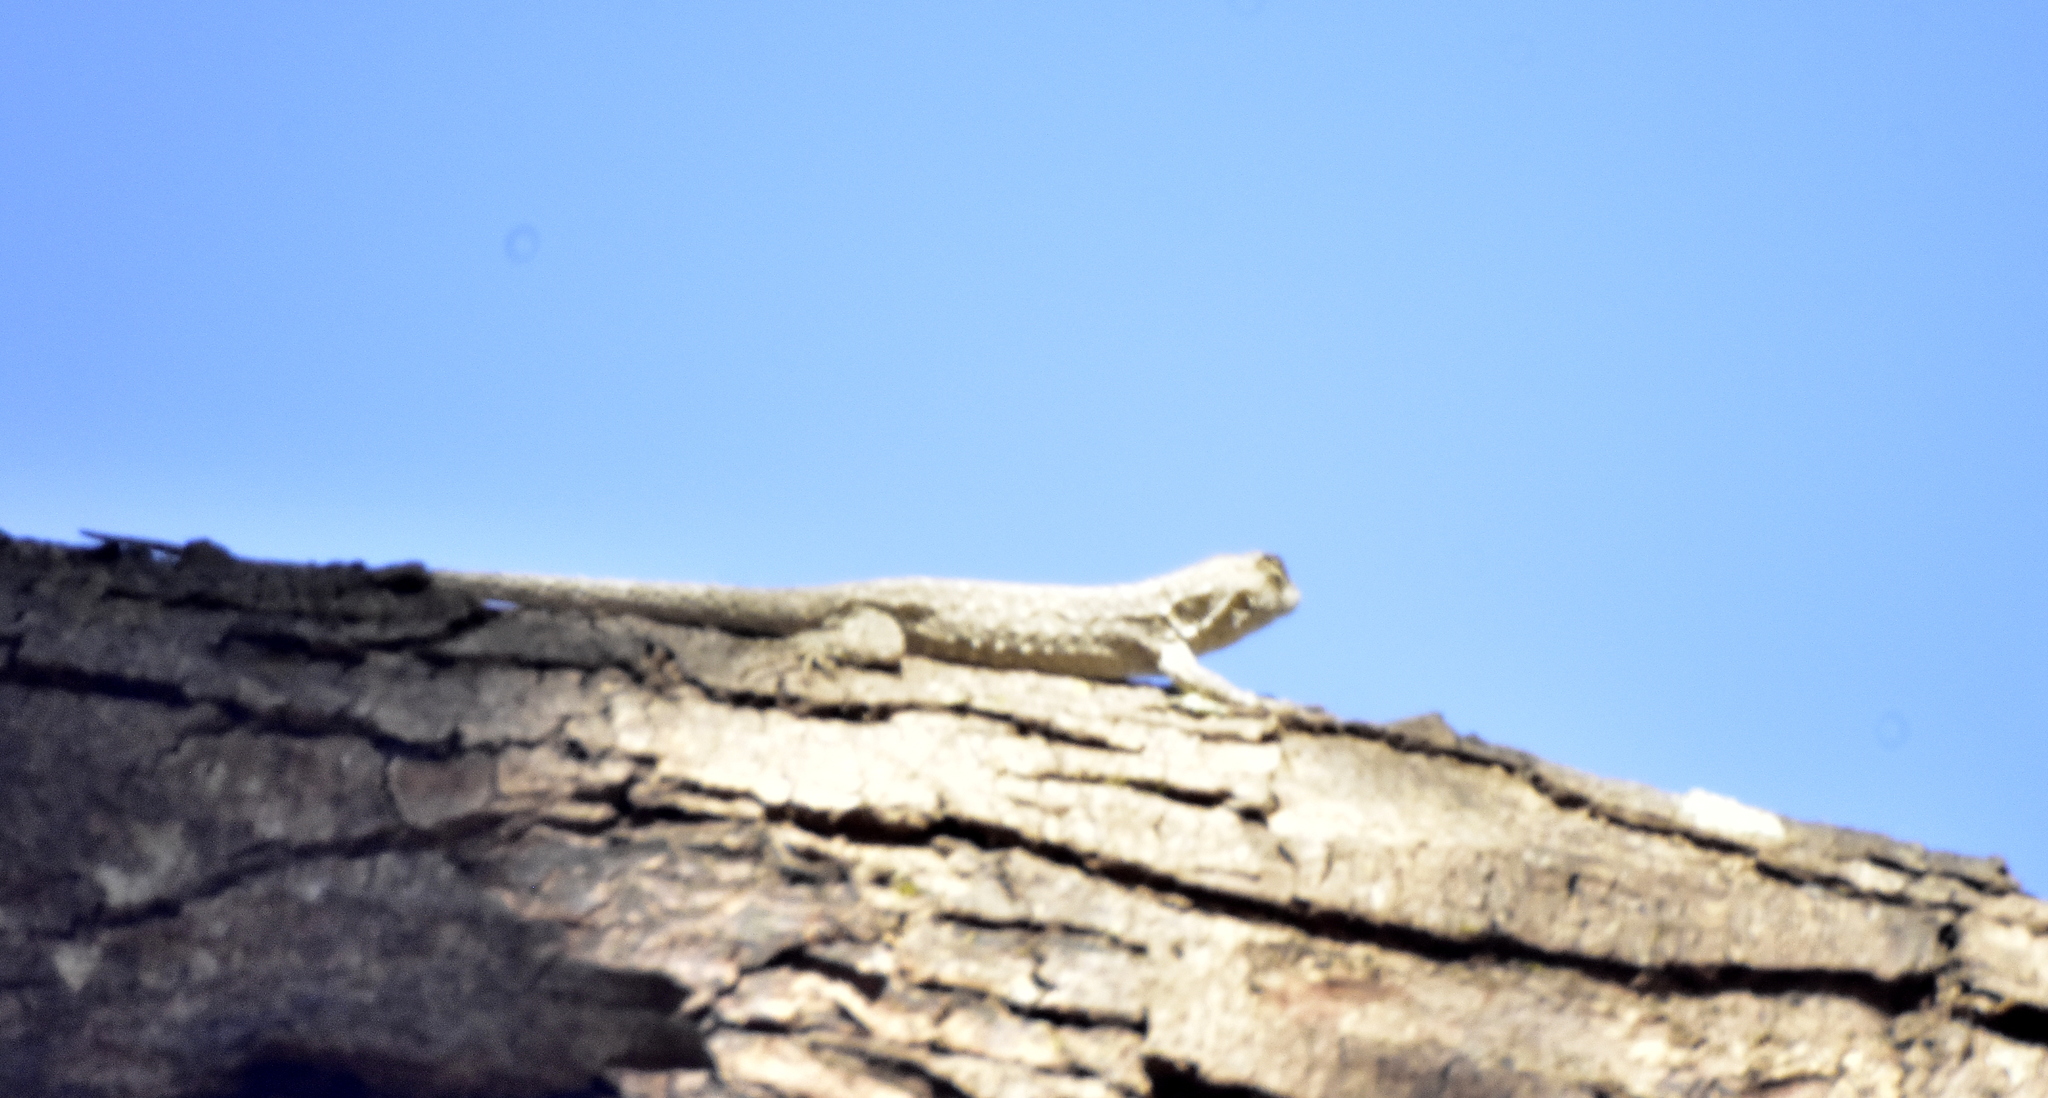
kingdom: Animalia
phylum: Chordata
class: Squamata
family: Phrynosomatidae
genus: Urosaurus
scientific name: Urosaurus bicarinatus
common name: Tropical tree lizard
